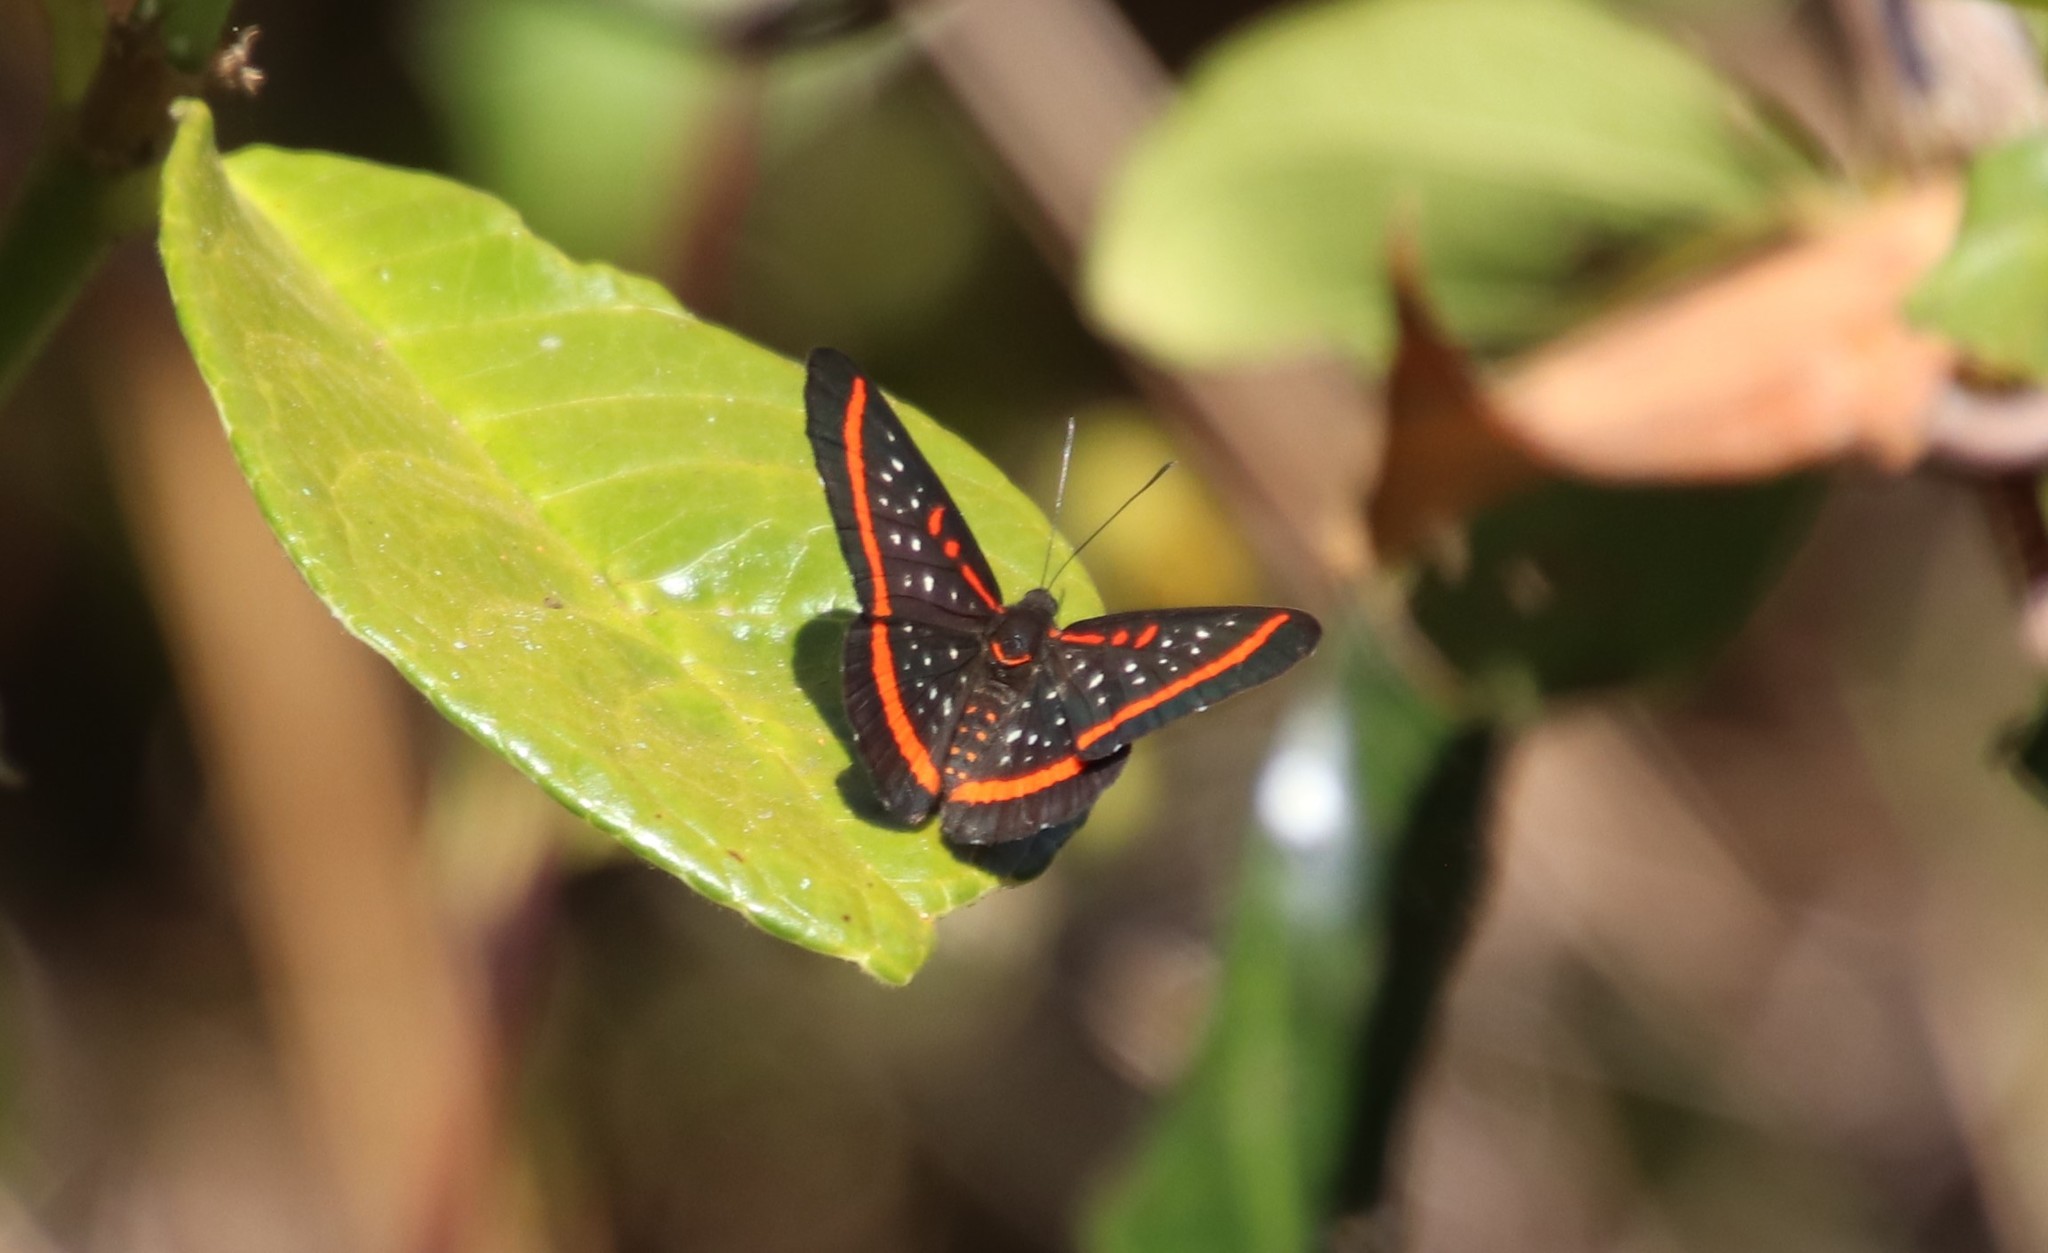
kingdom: Animalia
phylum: Arthropoda
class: Insecta
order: Lepidoptera
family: Riodinidae
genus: Amarynthis
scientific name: Amarynthis meneria
